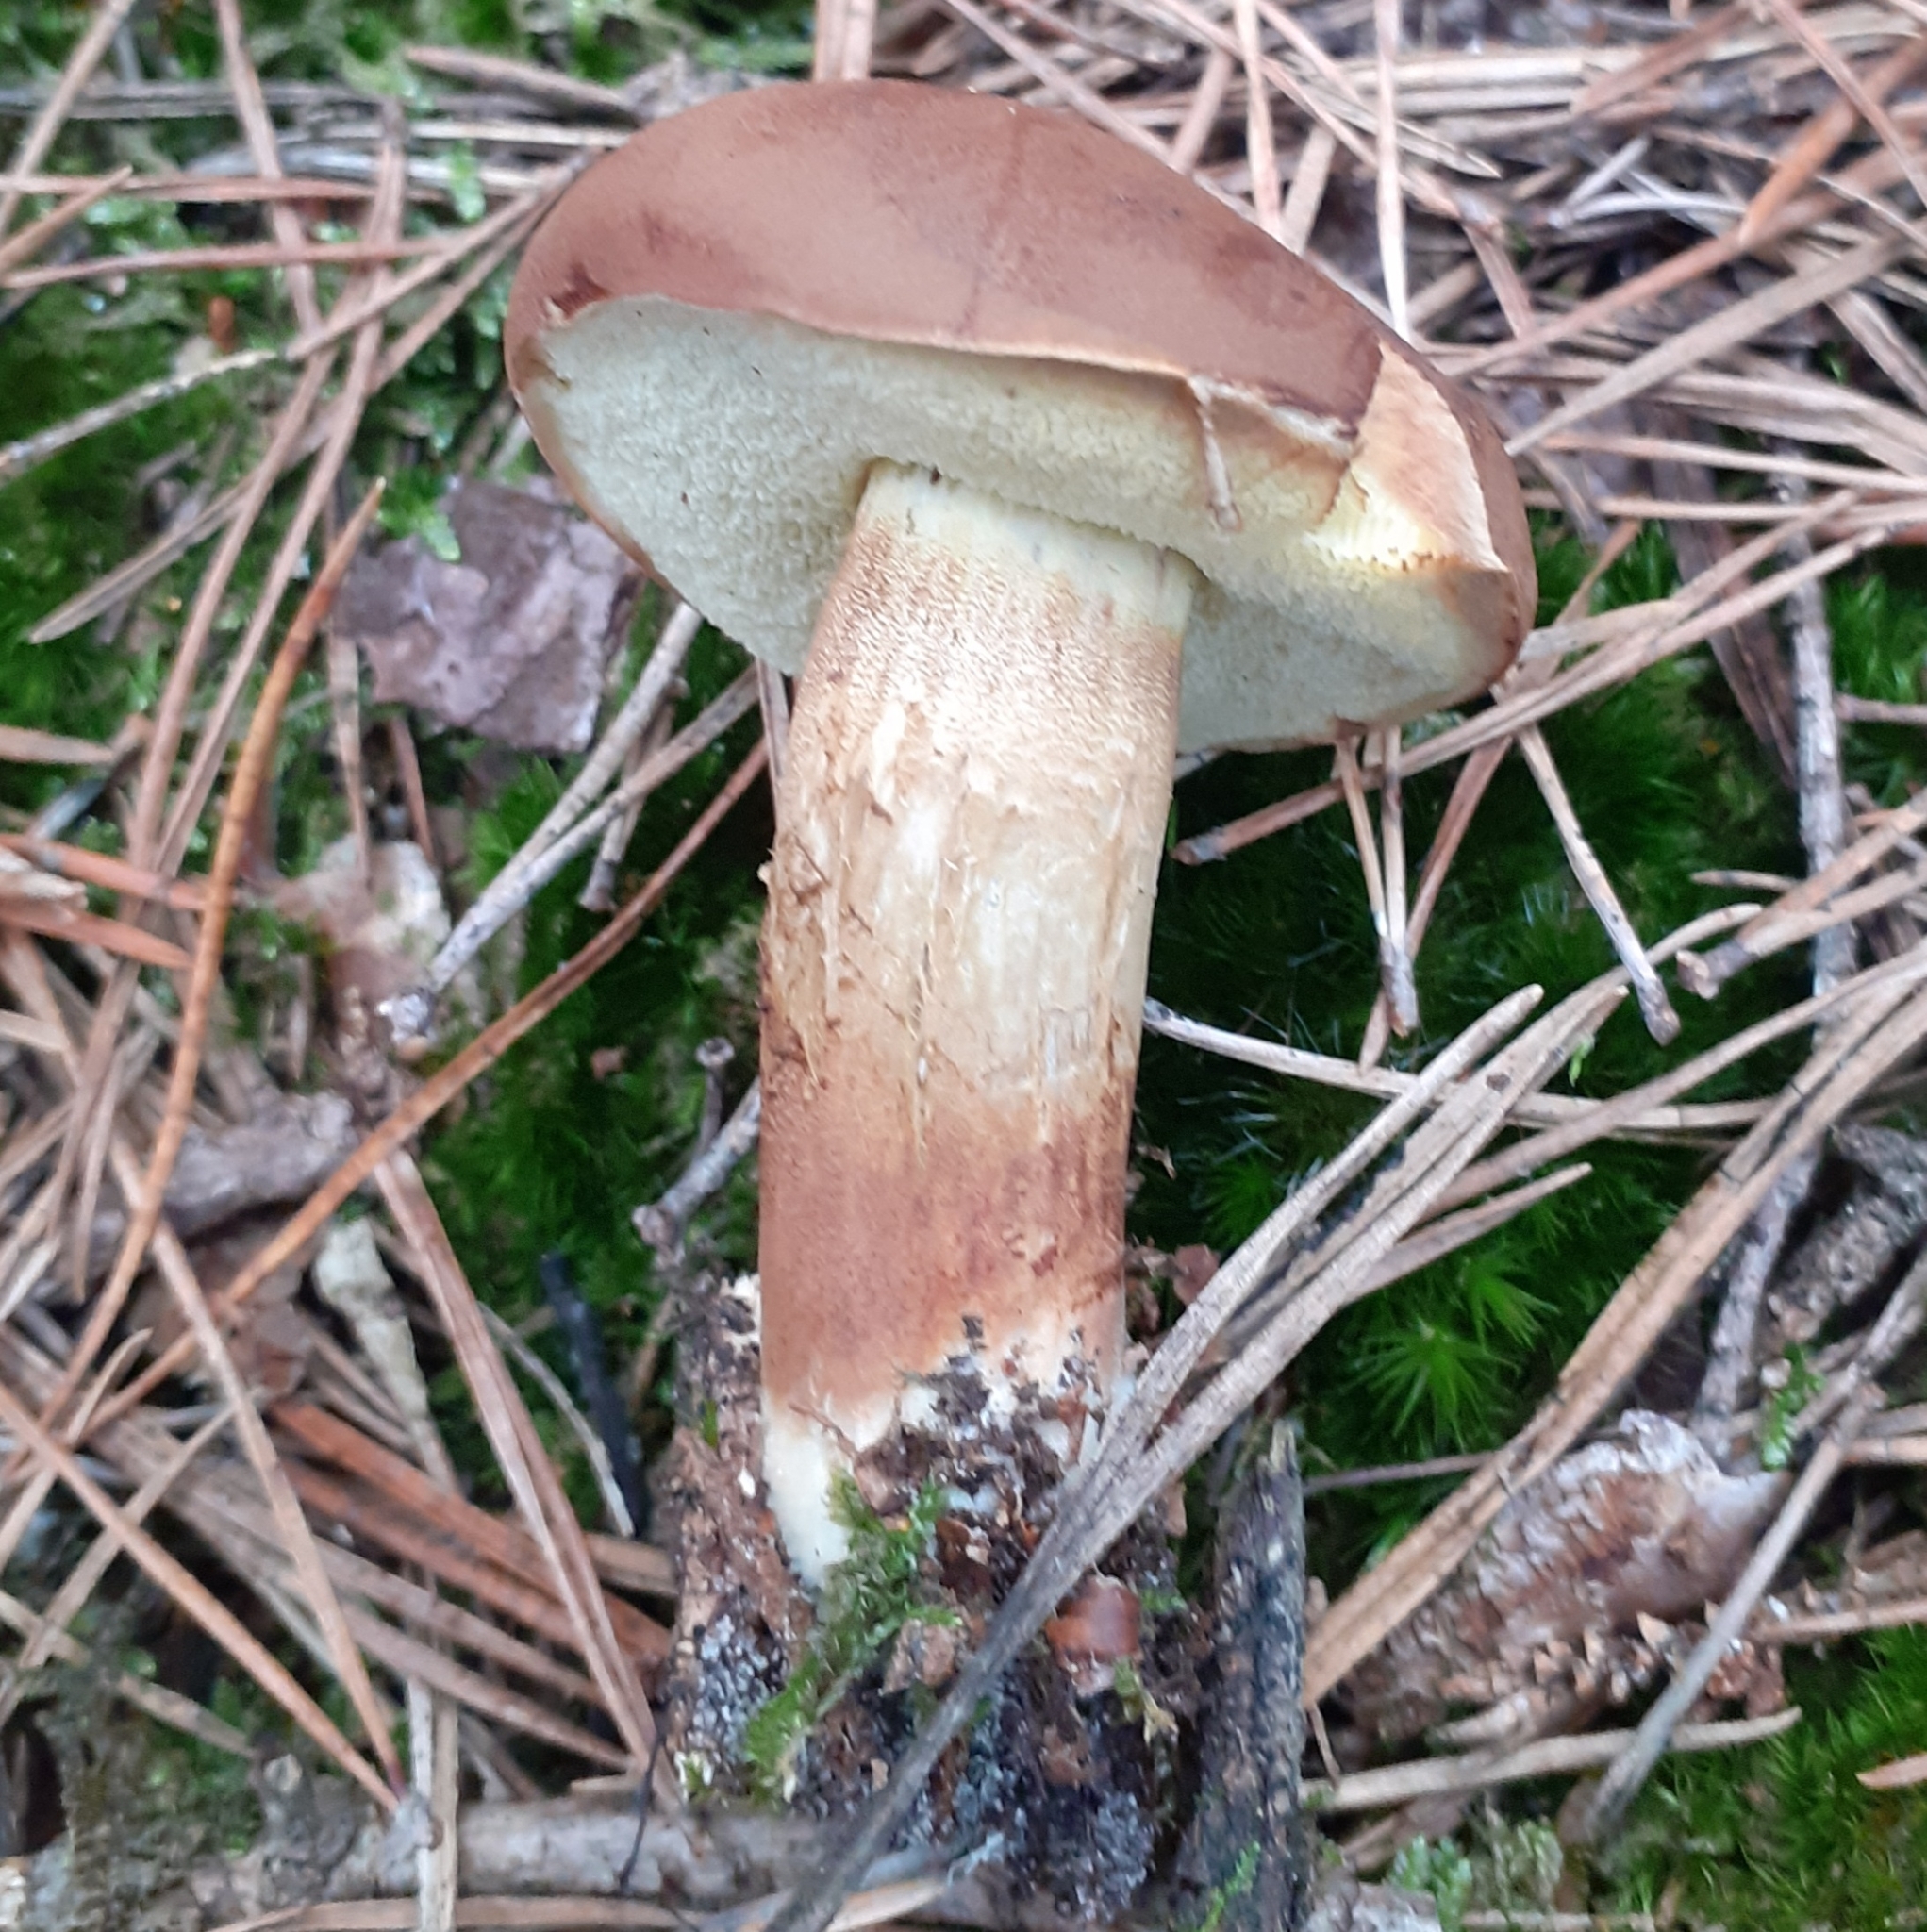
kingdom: Fungi
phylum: Basidiomycota
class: Agaricomycetes
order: Boletales
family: Boletaceae
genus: Imleria
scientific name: Imleria badia
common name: Bay bolete
